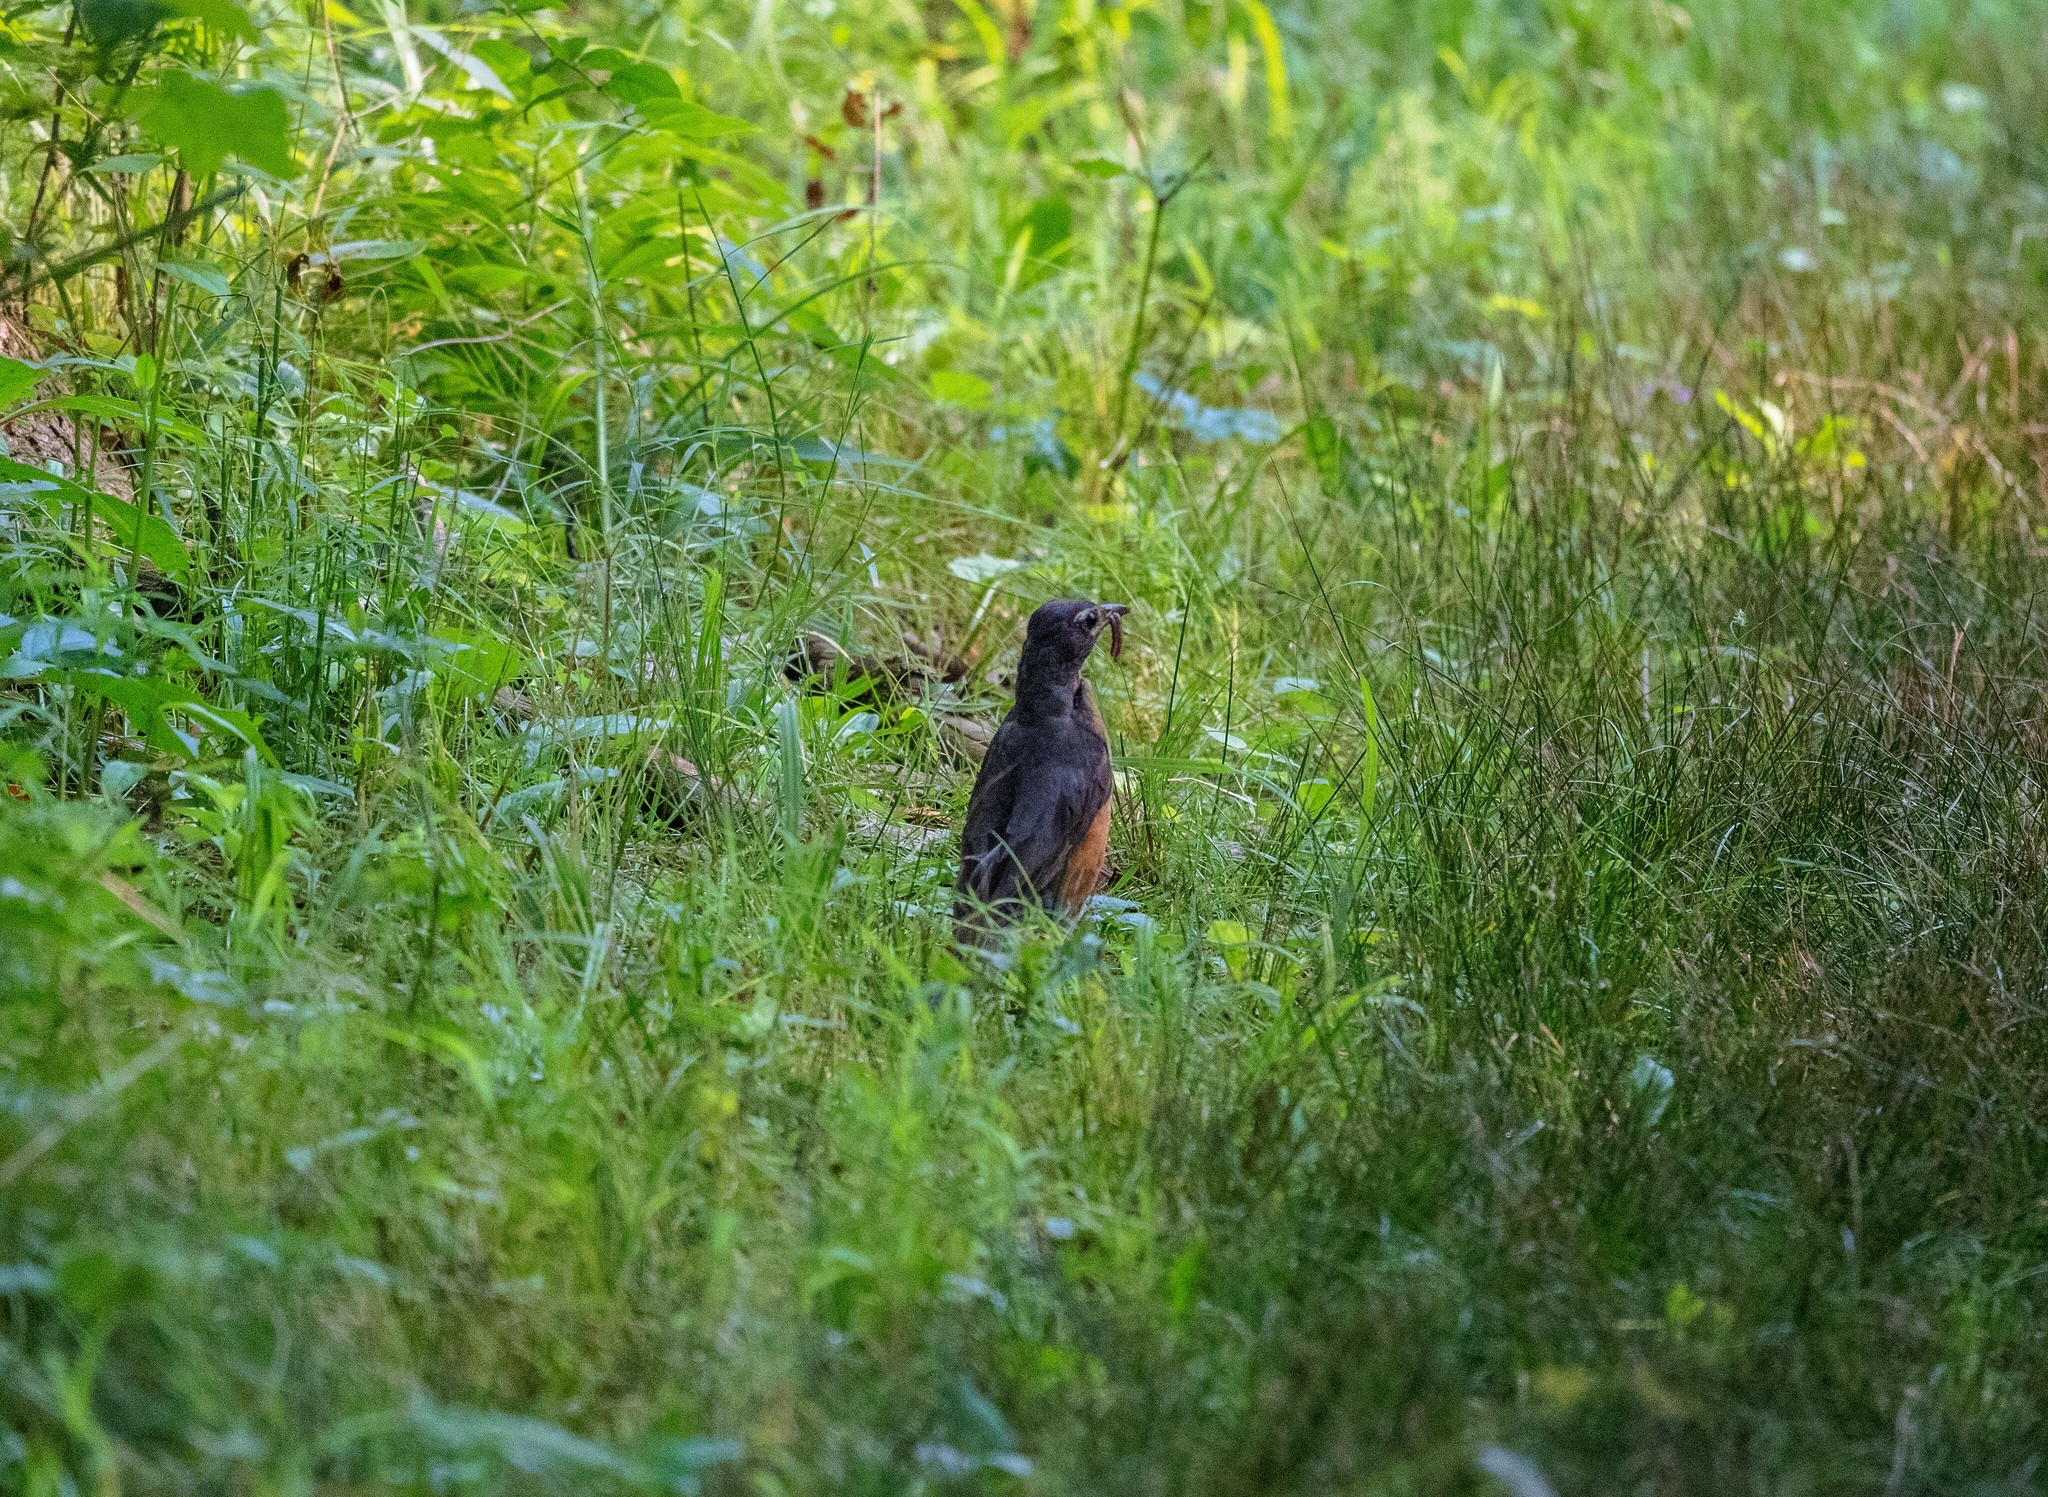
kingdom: Animalia
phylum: Chordata
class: Aves
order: Passeriformes
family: Turdidae
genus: Turdus
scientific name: Turdus migratorius
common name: American robin
